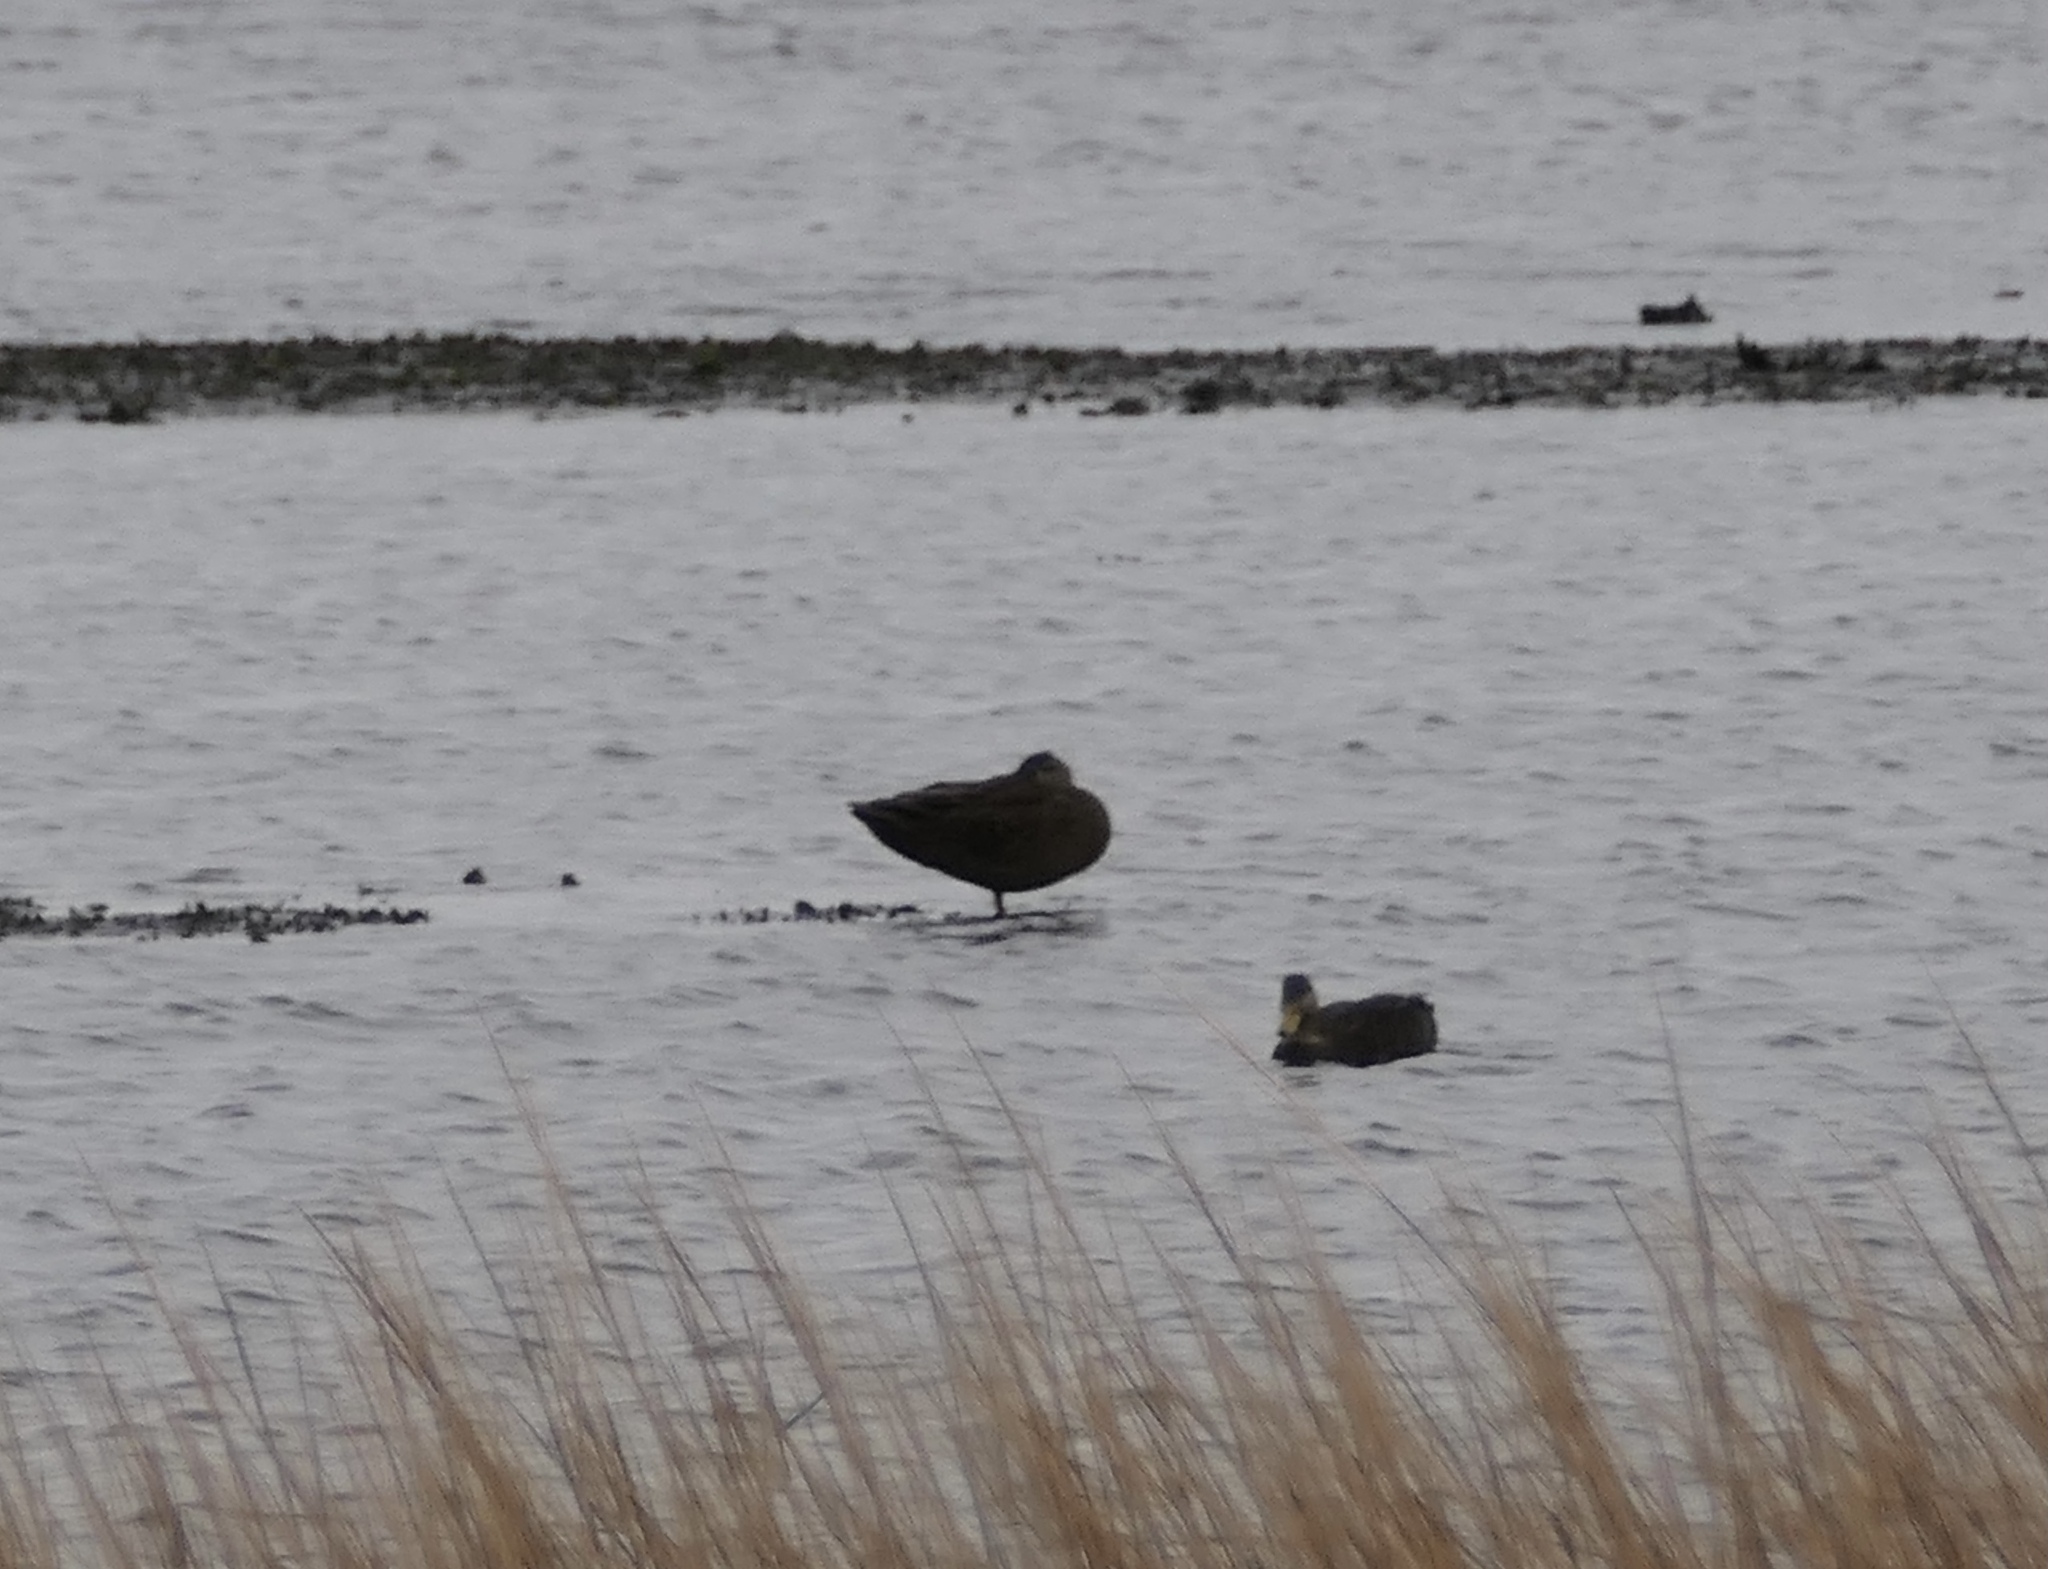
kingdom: Animalia
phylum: Chordata
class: Aves
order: Anseriformes
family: Anatidae
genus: Anas
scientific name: Anas rubripes
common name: American black duck
